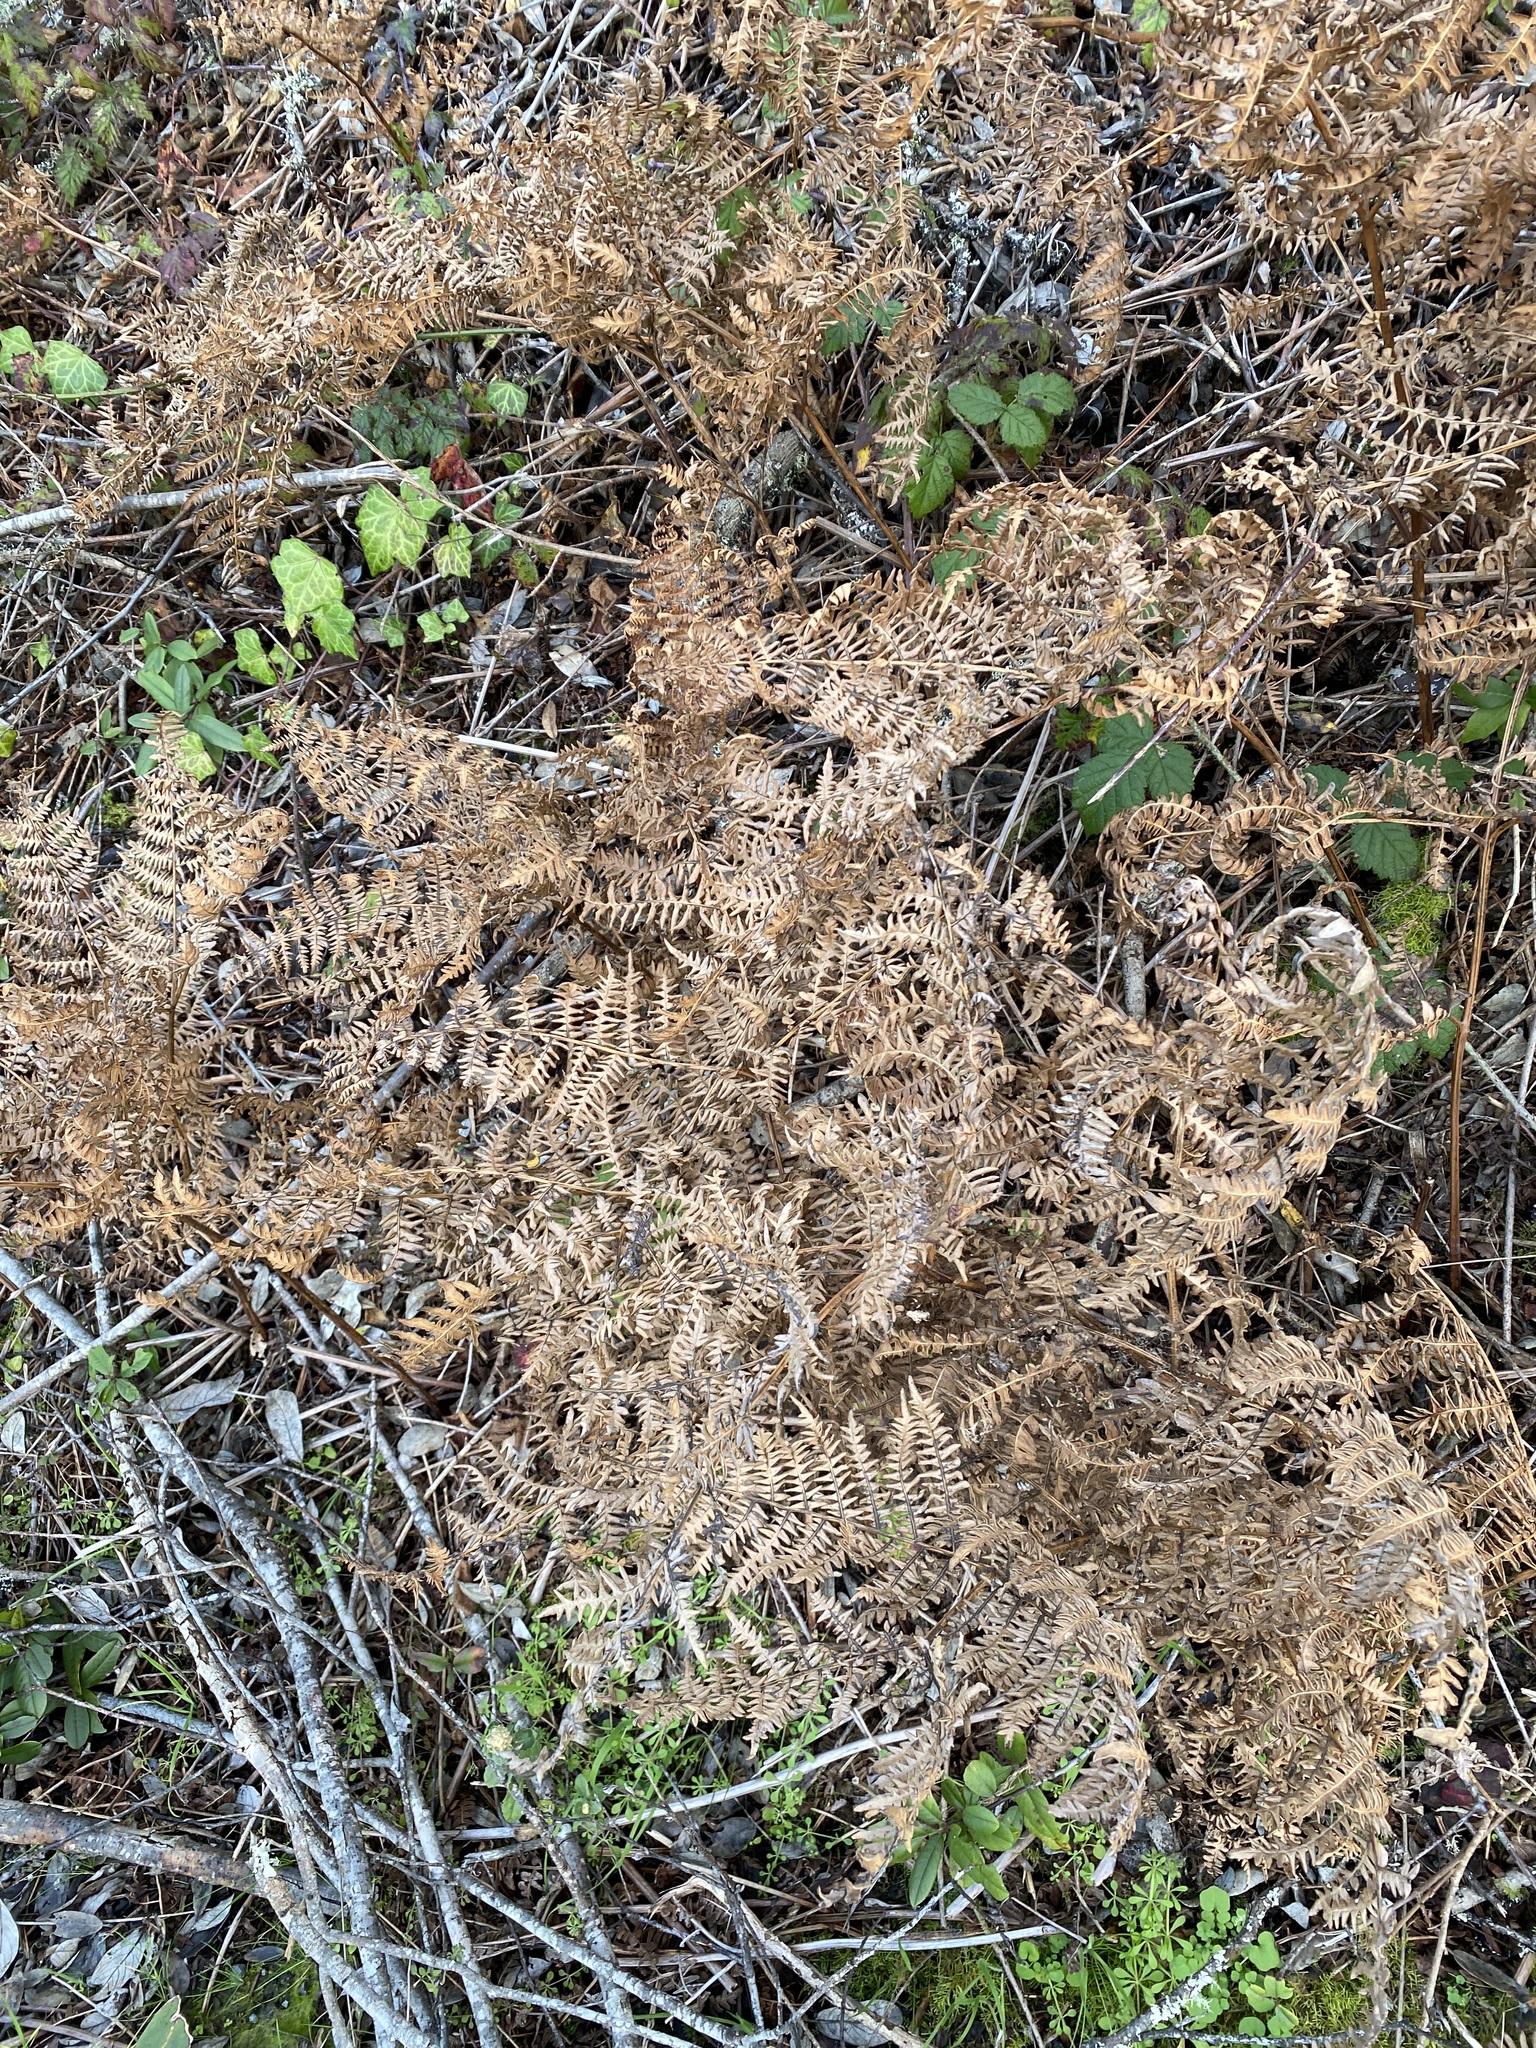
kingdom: Plantae
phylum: Tracheophyta
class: Polypodiopsida
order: Polypodiales
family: Dennstaedtiaceae
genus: Pteridium
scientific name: Pteridium aquilinum
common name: Bracken
